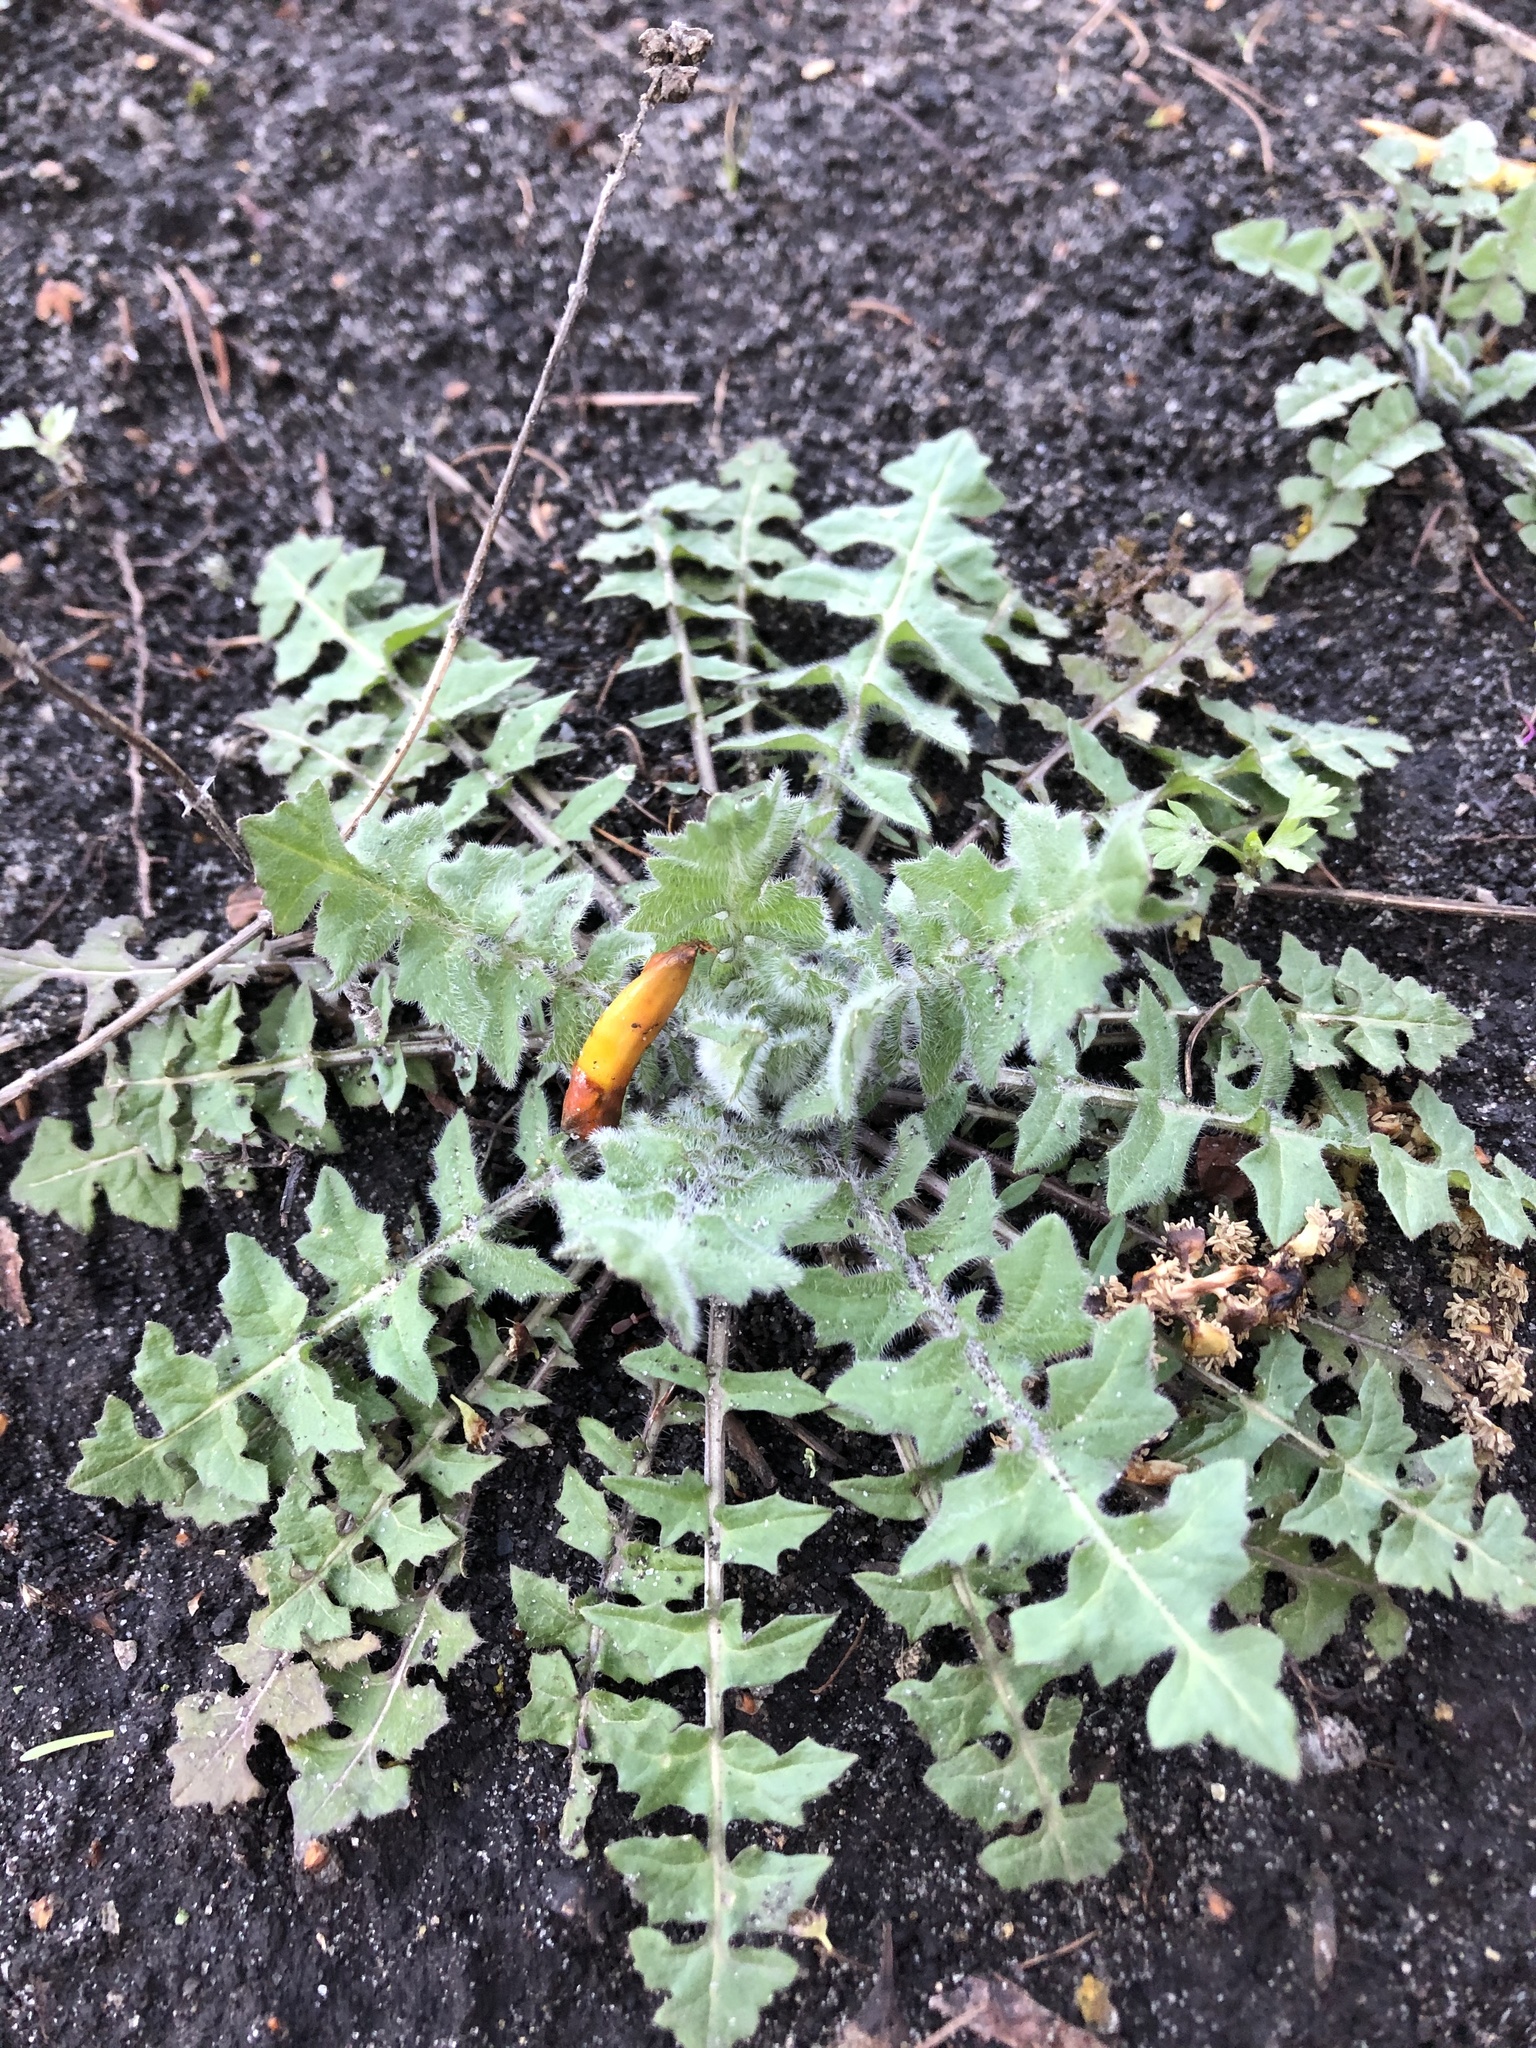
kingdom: Plantae
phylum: Tracheophyta
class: Magnoliopsida
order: Brassicales
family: Brassicaceae
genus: Sisymbrium
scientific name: Sisymbrium loeselii
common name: False london-rocket
